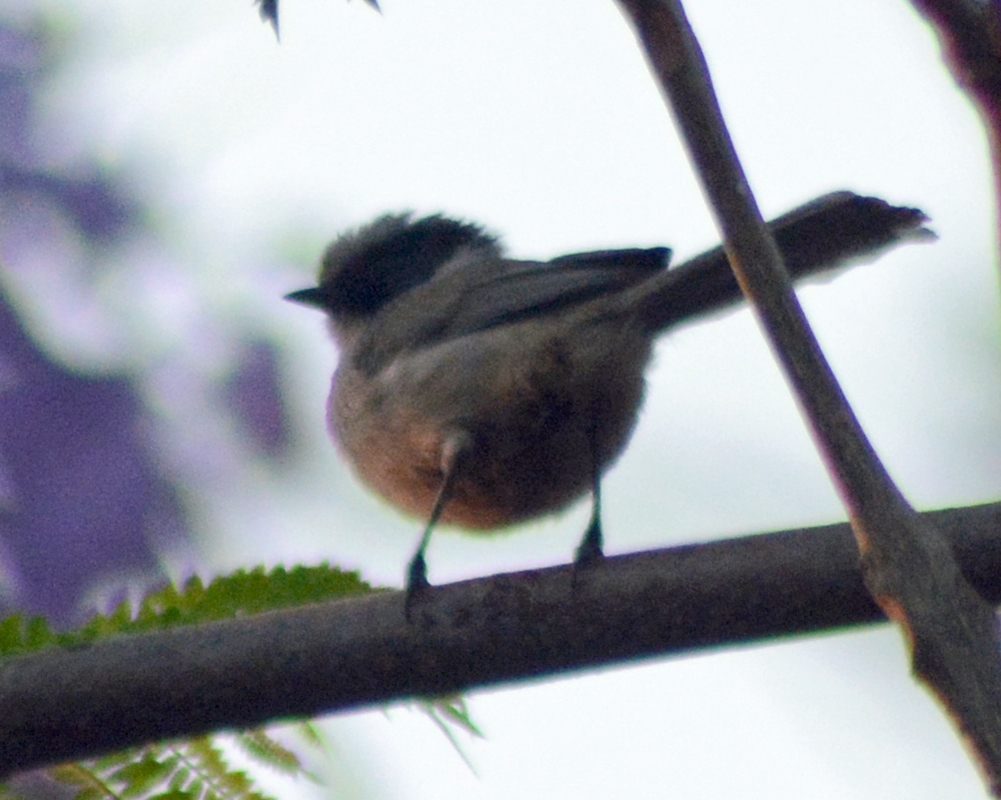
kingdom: Animalia
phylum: Chordata
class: Aves
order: Passeriformes
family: Aegithalidae
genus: Psaltriparus
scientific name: Psaltriparus minimus
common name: American bushtit
